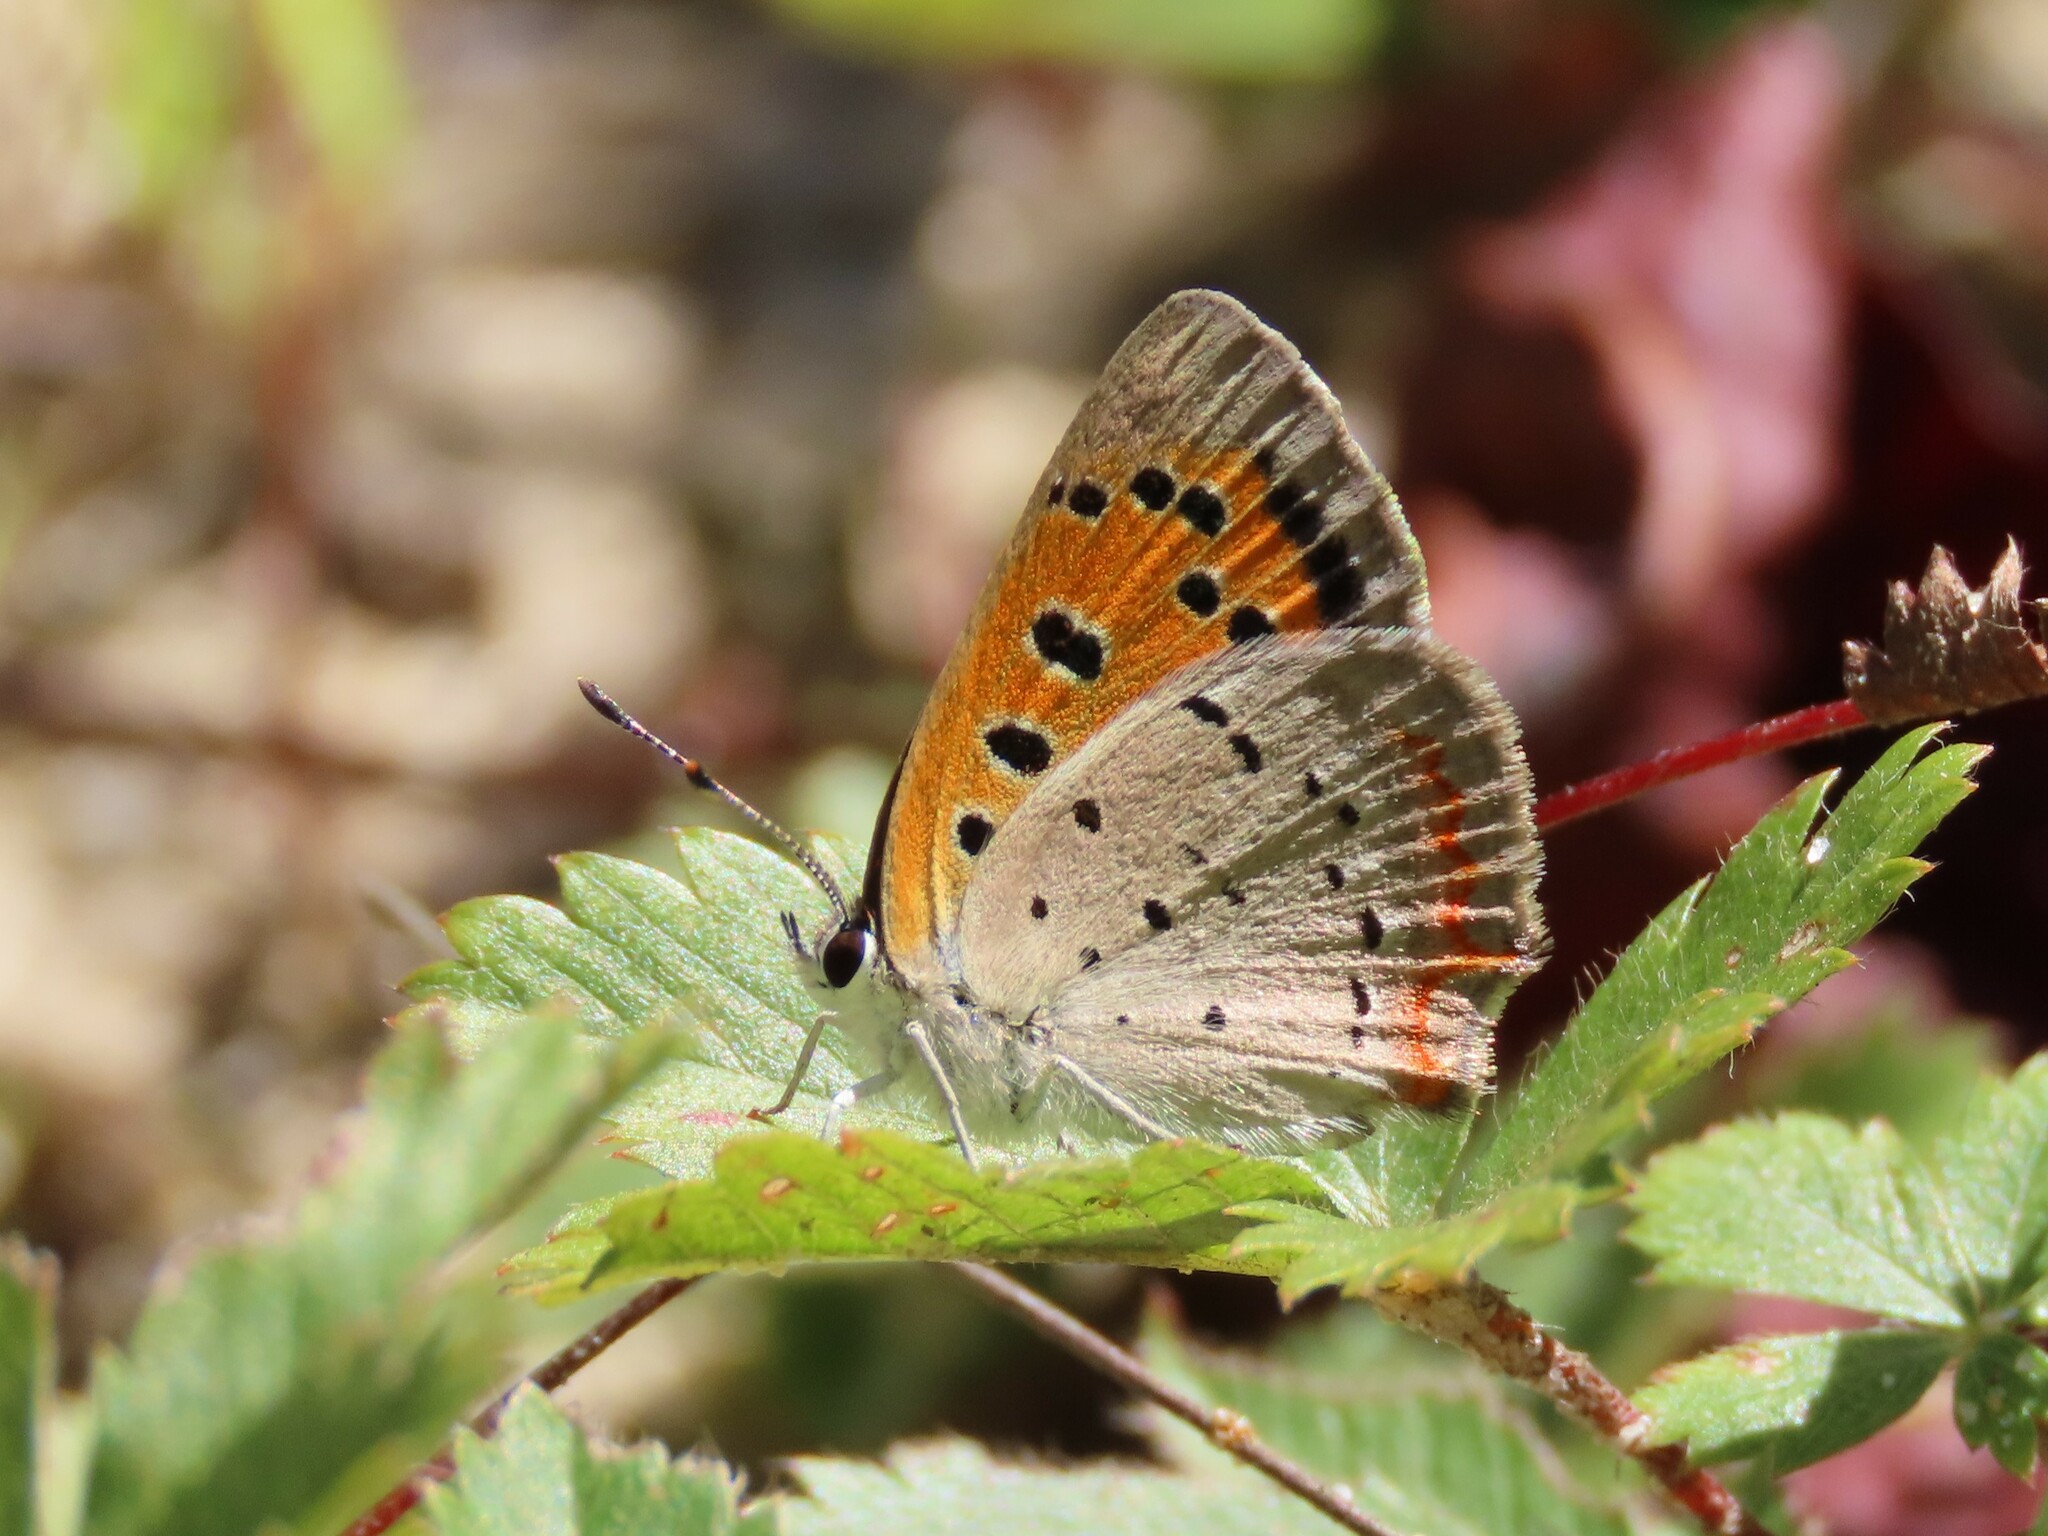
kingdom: Animalia
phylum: Arthropoda
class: Insecta
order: Lepidoptera
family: Lycaenidae
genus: Lycaena
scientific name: Lycaena hypophlaeas
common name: American copper
